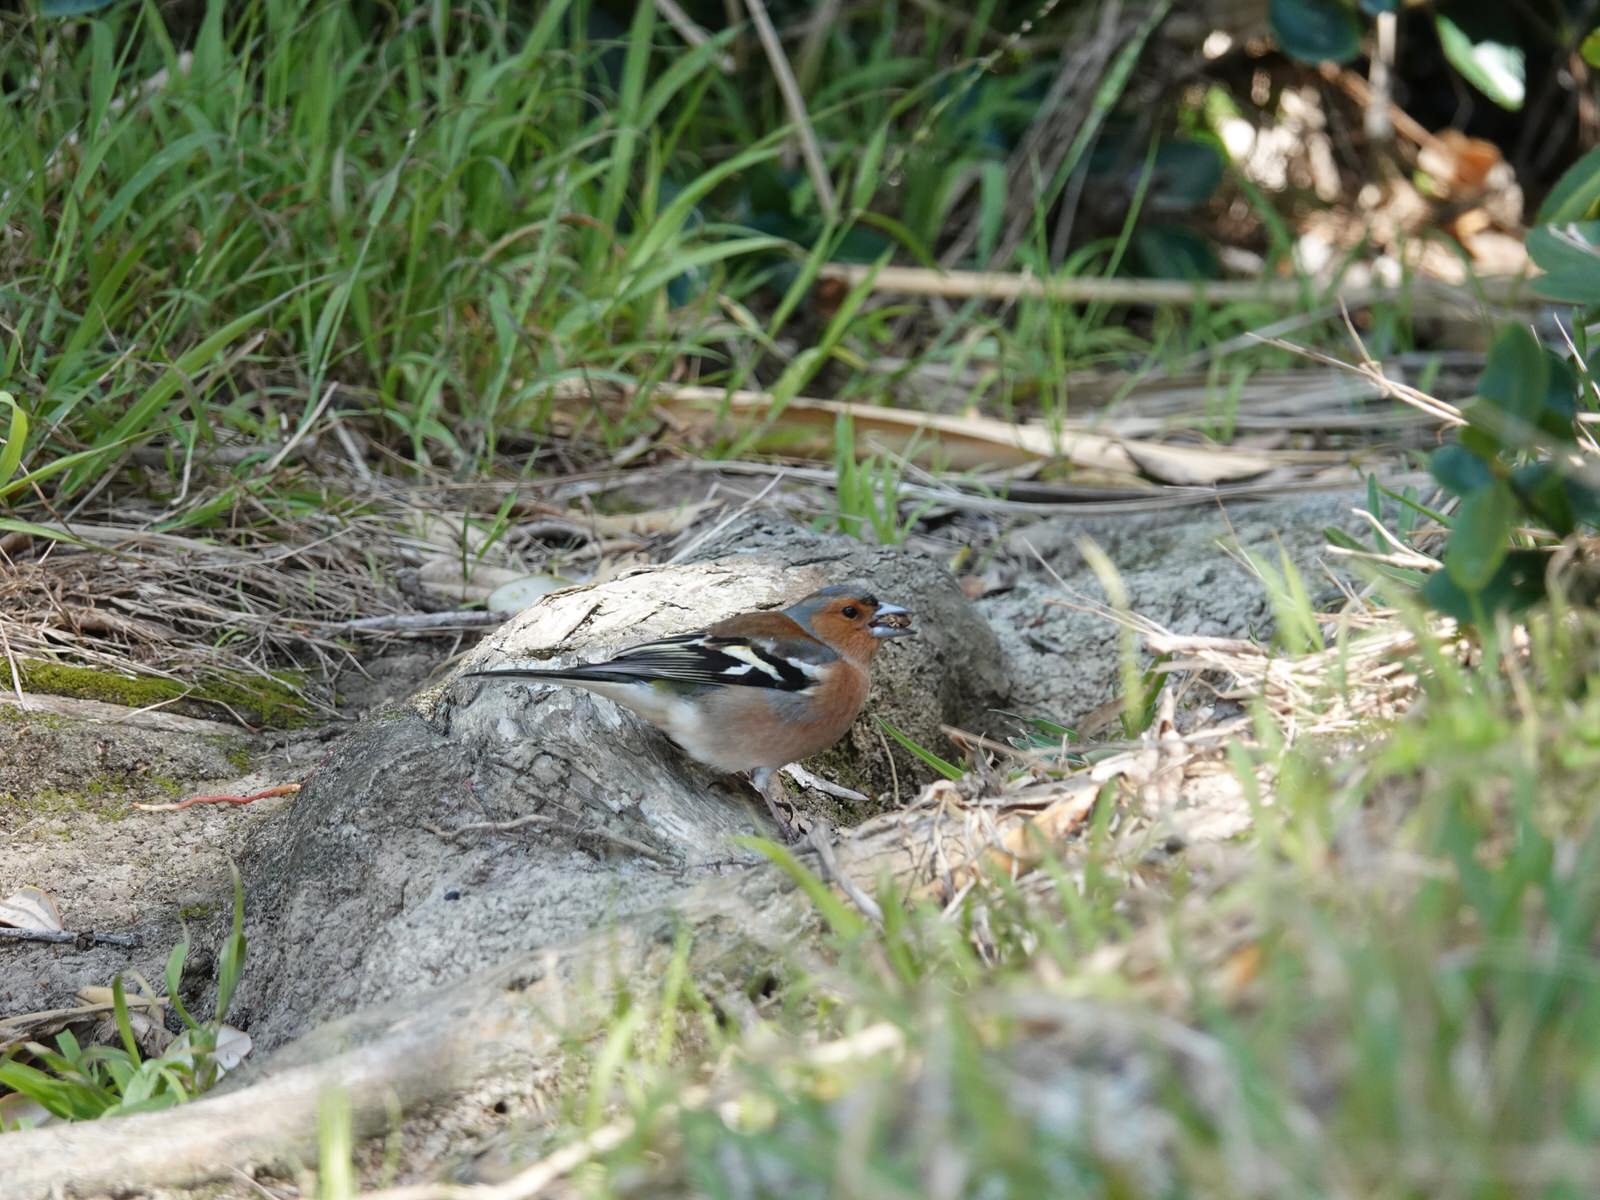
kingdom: Animalia
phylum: Chordata
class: Aves
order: Passeriformes
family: Fringillidae
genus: Fringilla
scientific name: Fringilla coelebs
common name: Common chaffinch
